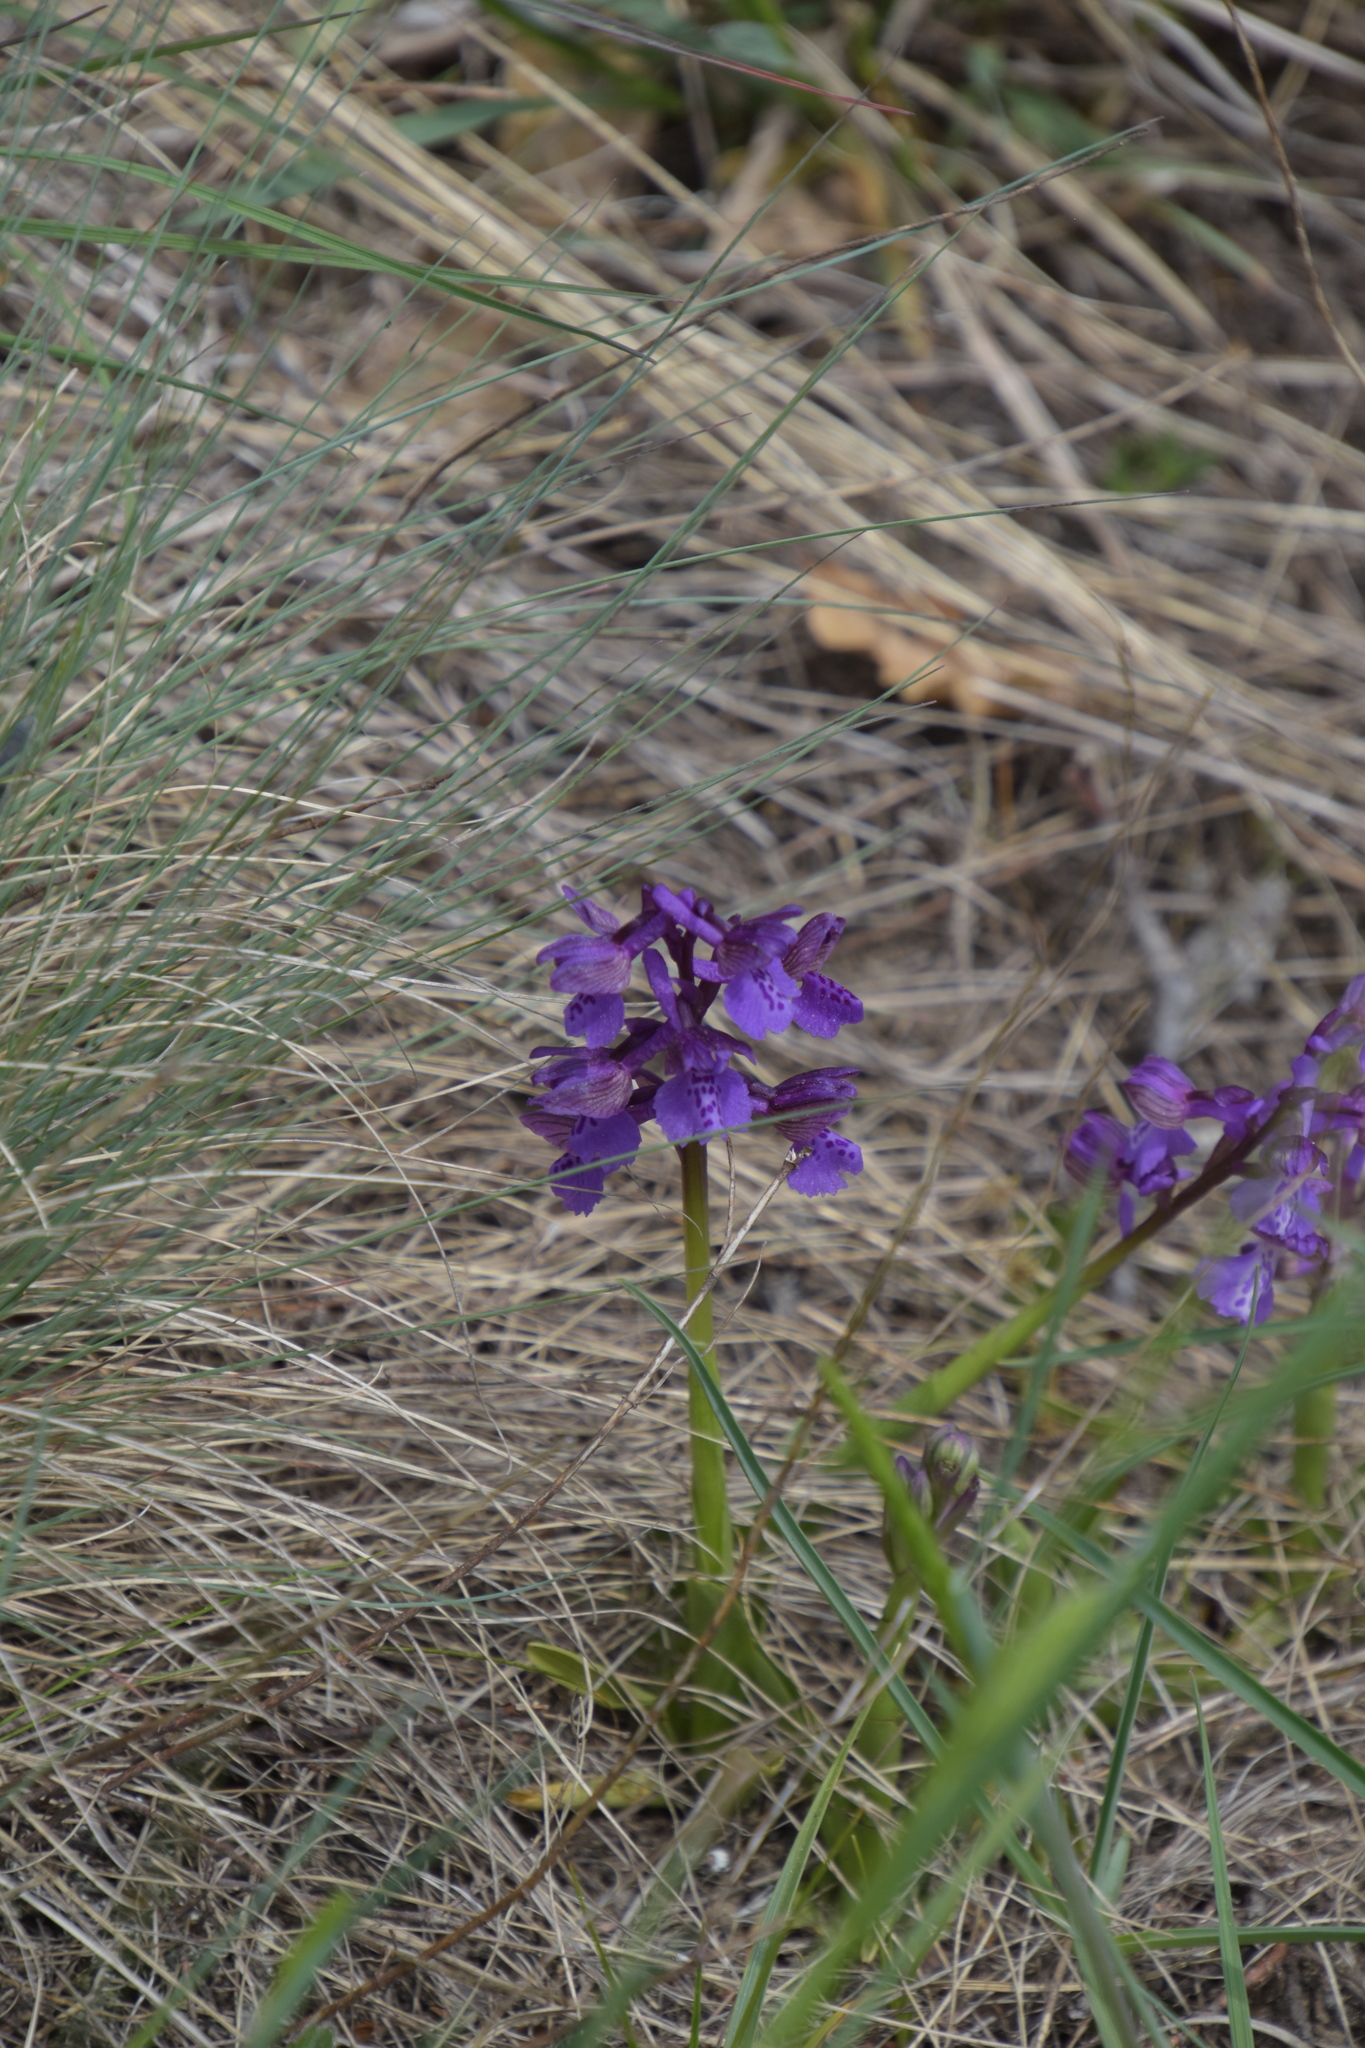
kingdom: Plantae
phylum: Tracheophyta
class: Liliopsida
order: Asparagales
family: Orchidaceae
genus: Anacamptis
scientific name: Anacamptis morio
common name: Green-winged orchid
